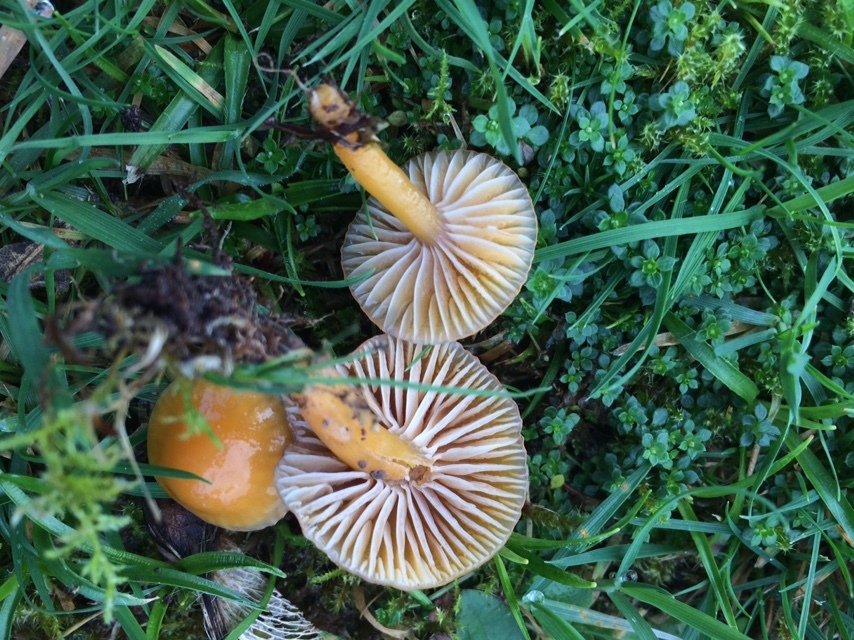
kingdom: Fungi
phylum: Basidiomycota
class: Agaricomycetes
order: Agaricales
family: Hygrophoraceae
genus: Gliophorus
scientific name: Gliophorus laetus
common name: Heath waxcap
